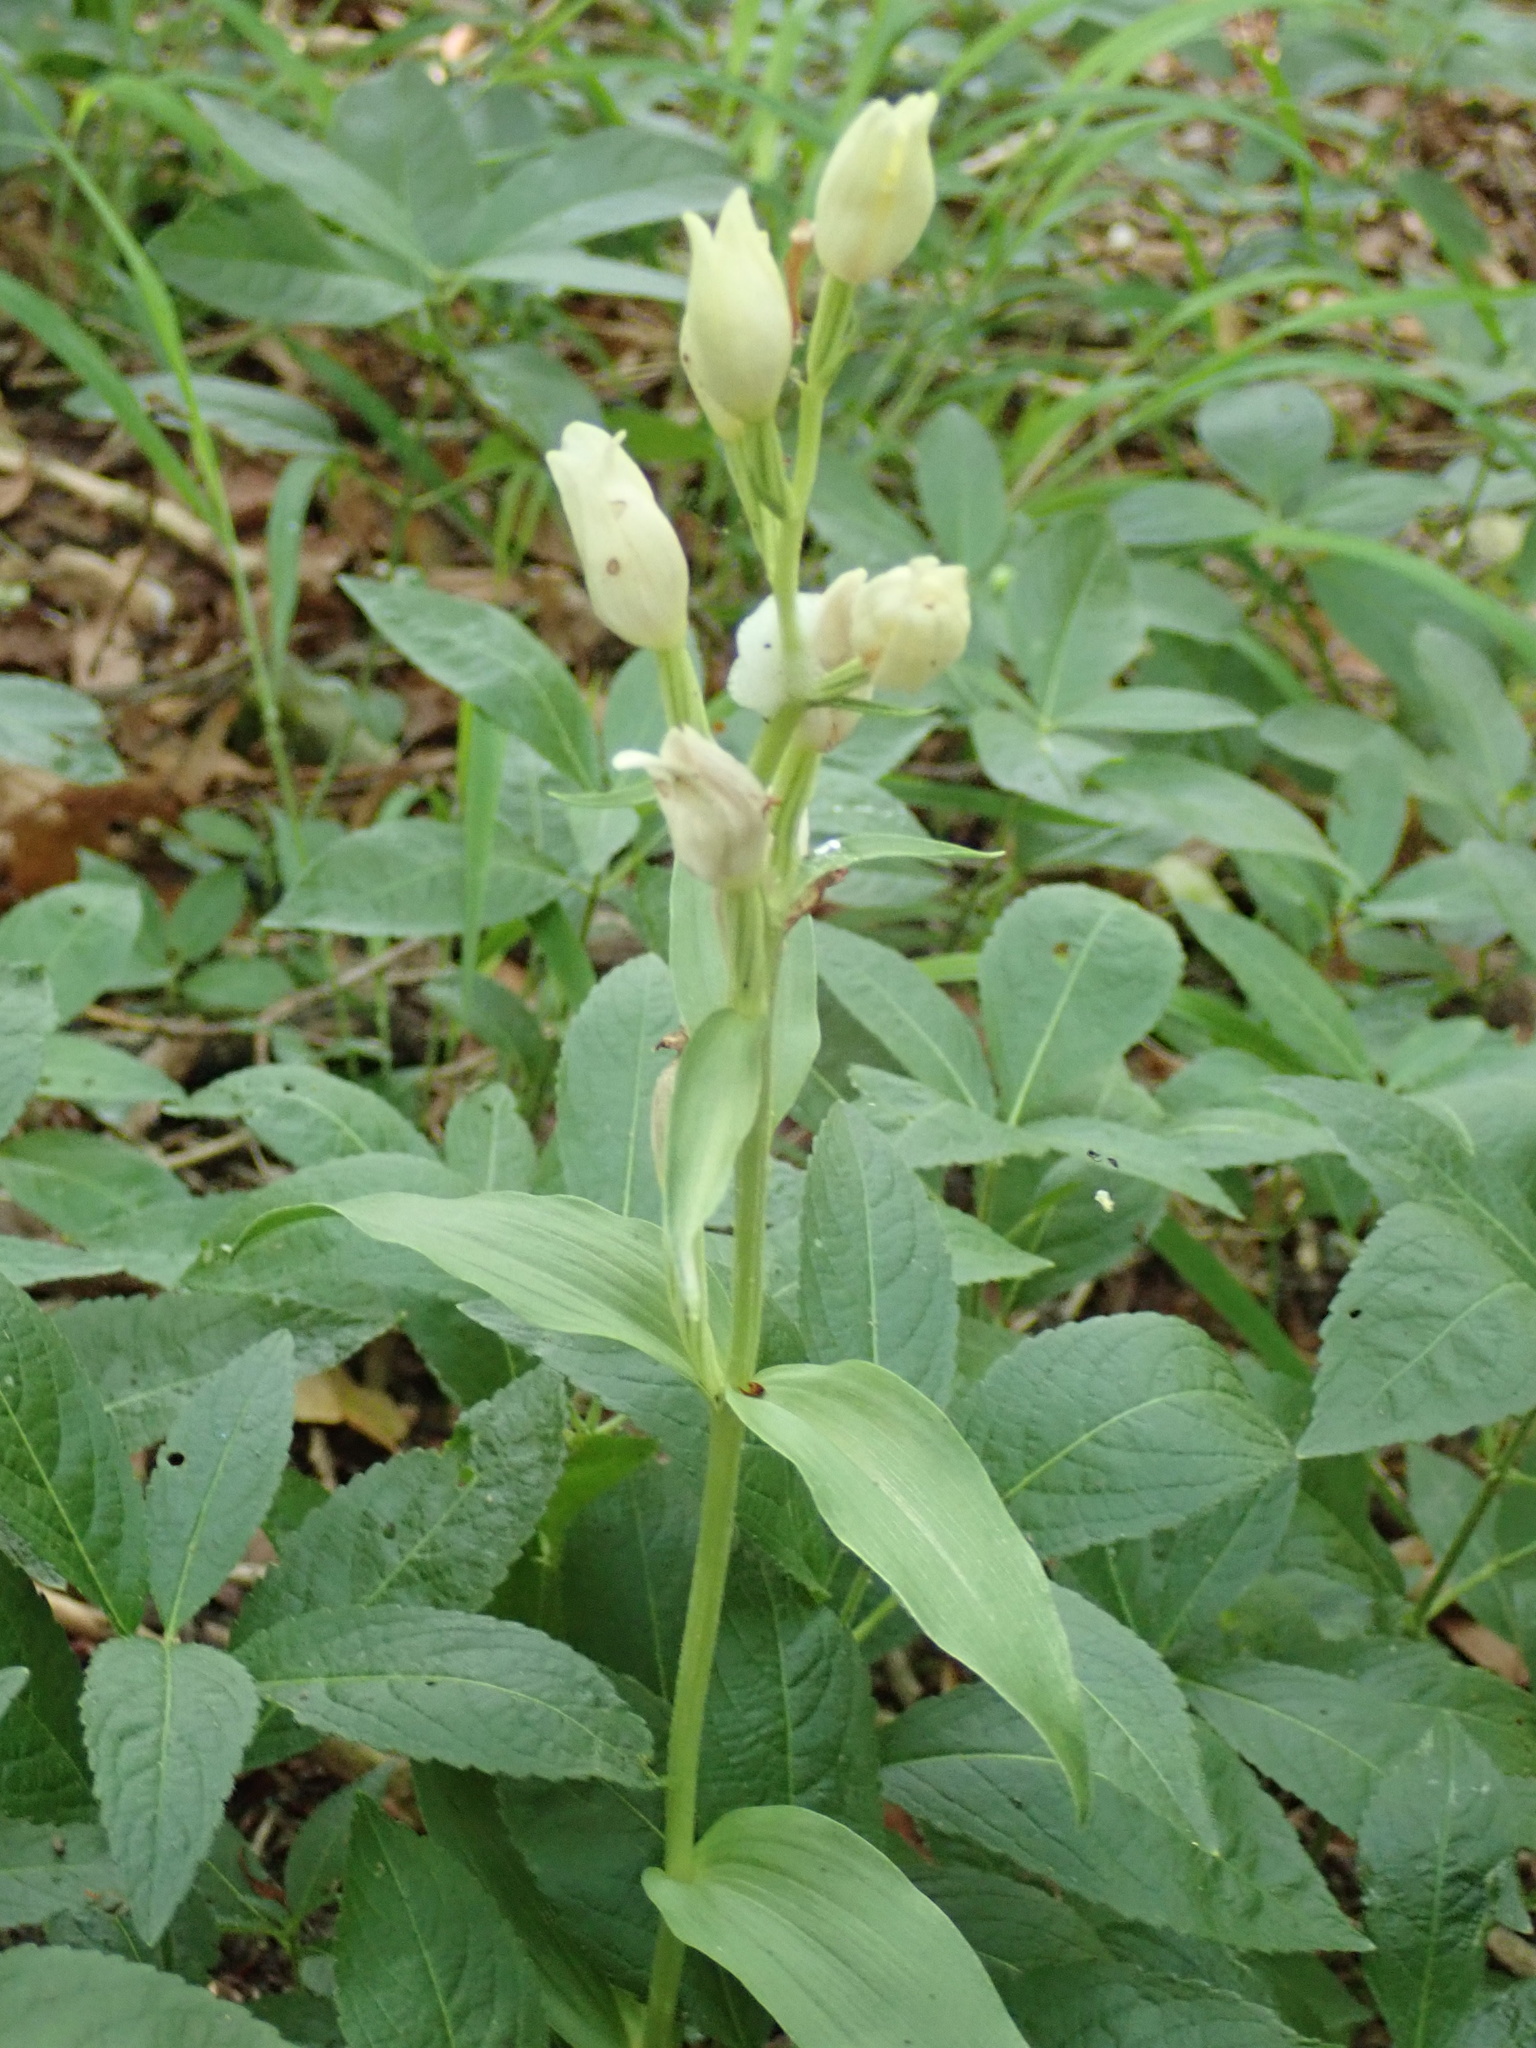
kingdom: Plantae
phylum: Tracheophyta
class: Liliopsida
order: Asparagales
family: Orchidaceae
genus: Cephalanthera
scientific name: Cephalanthera damasonium
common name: White helleborine
